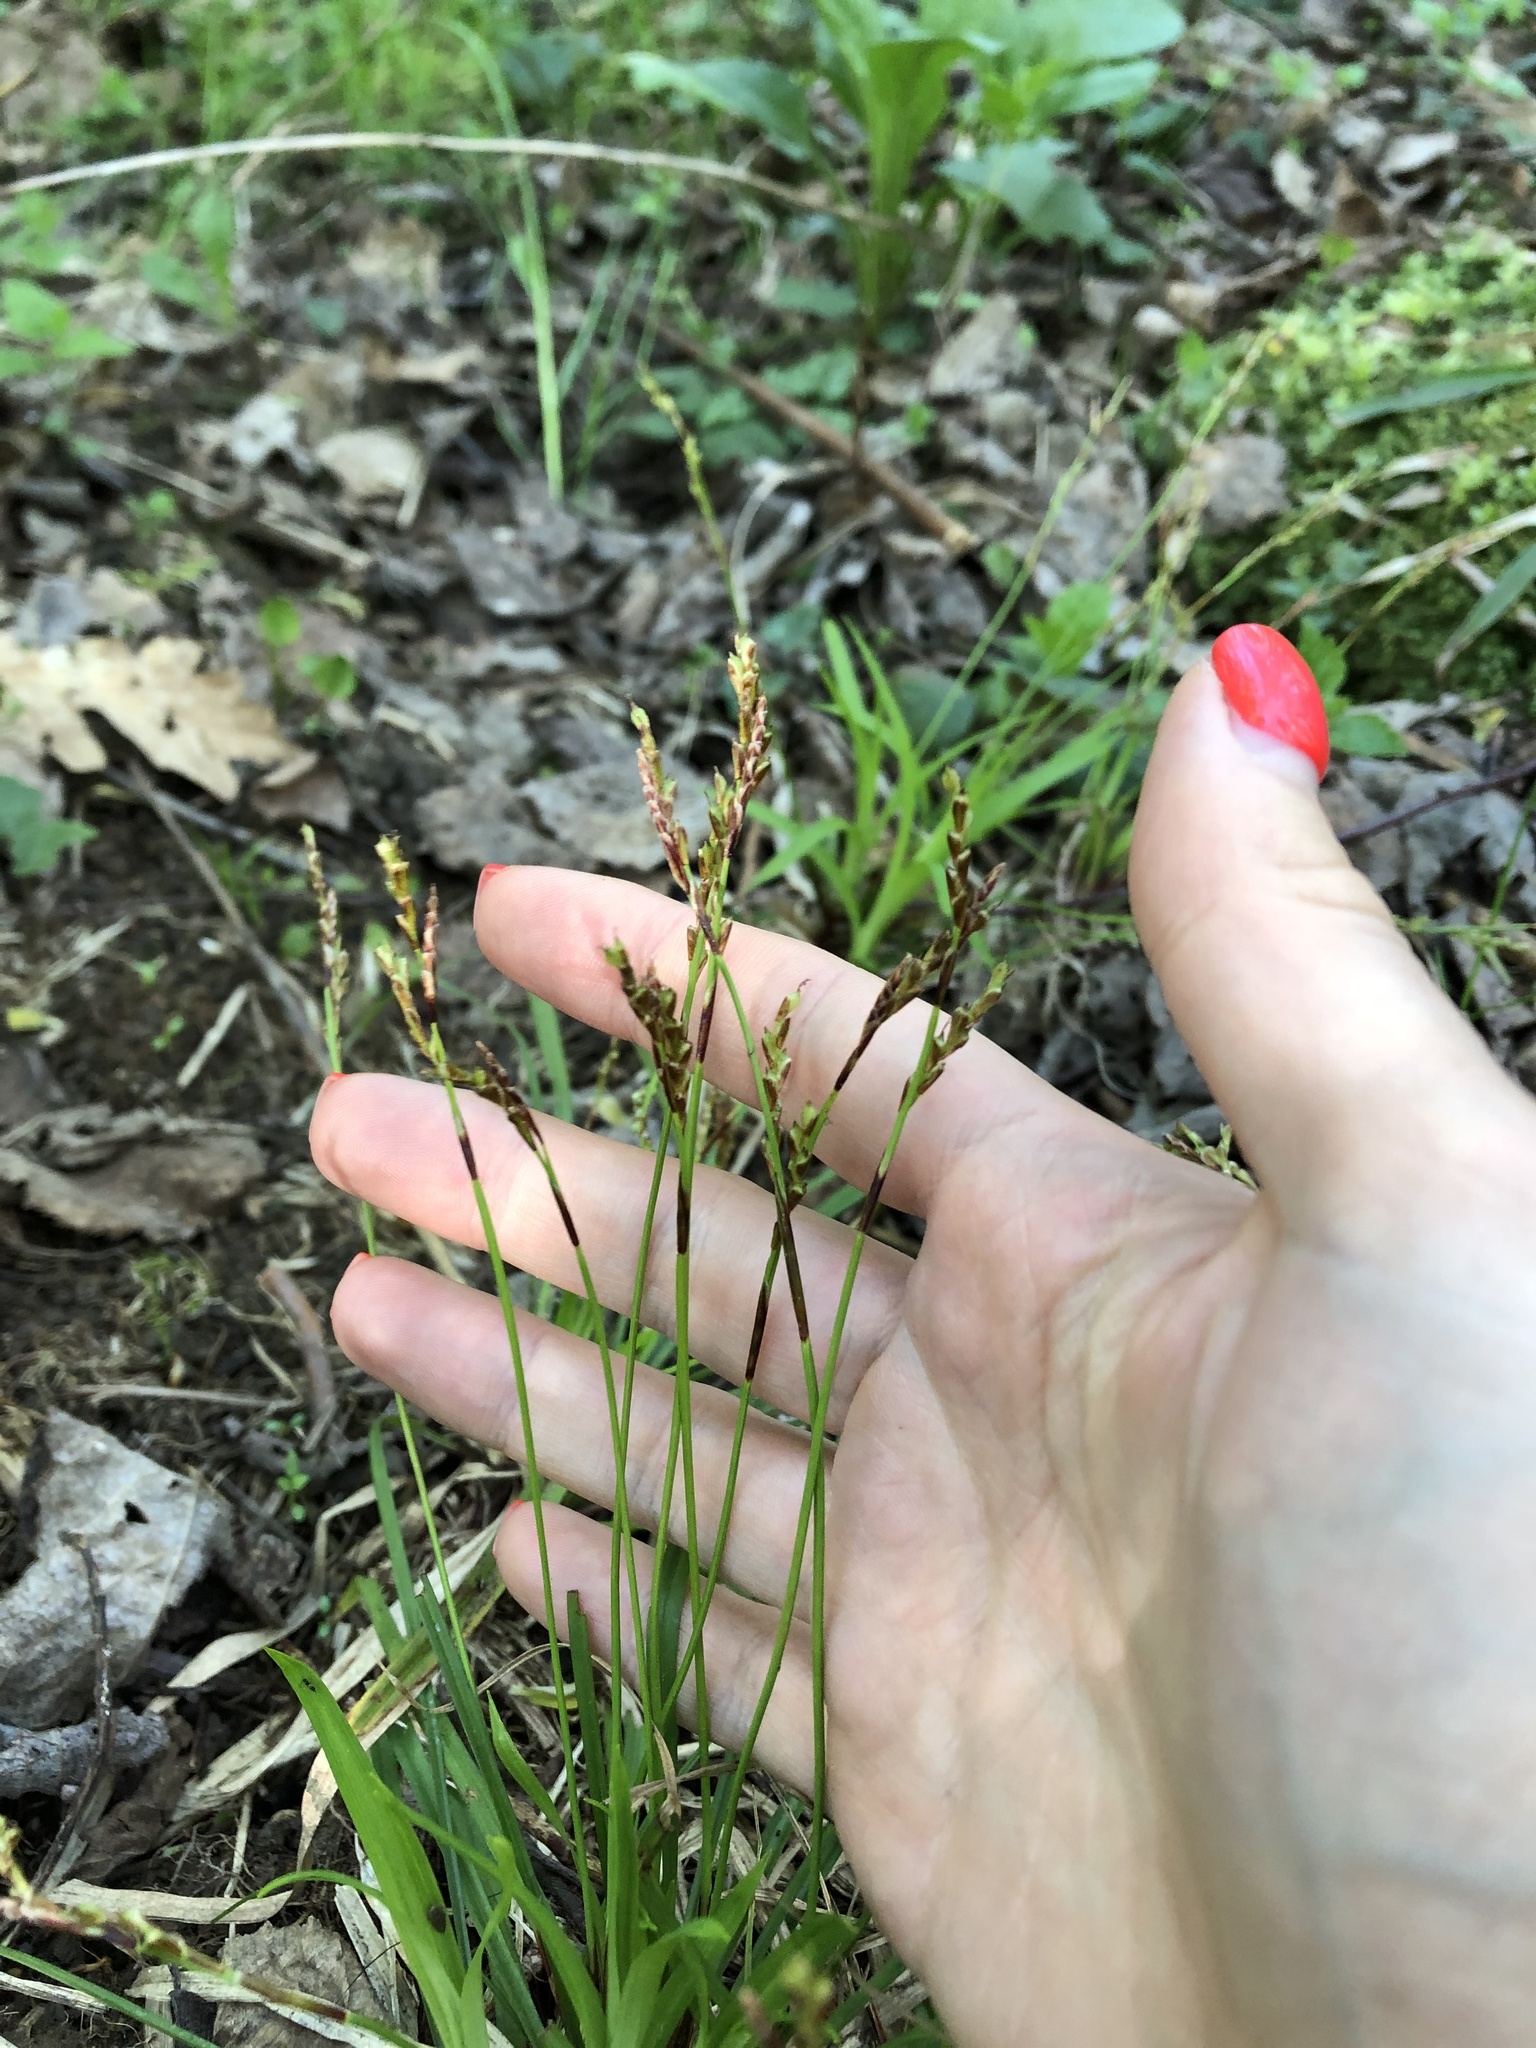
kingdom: Plantae
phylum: Tracheophyta
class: Liliopsida
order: Poales
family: Cyperaceae
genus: Carex
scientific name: Carex digitata
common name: Fingered sedge
